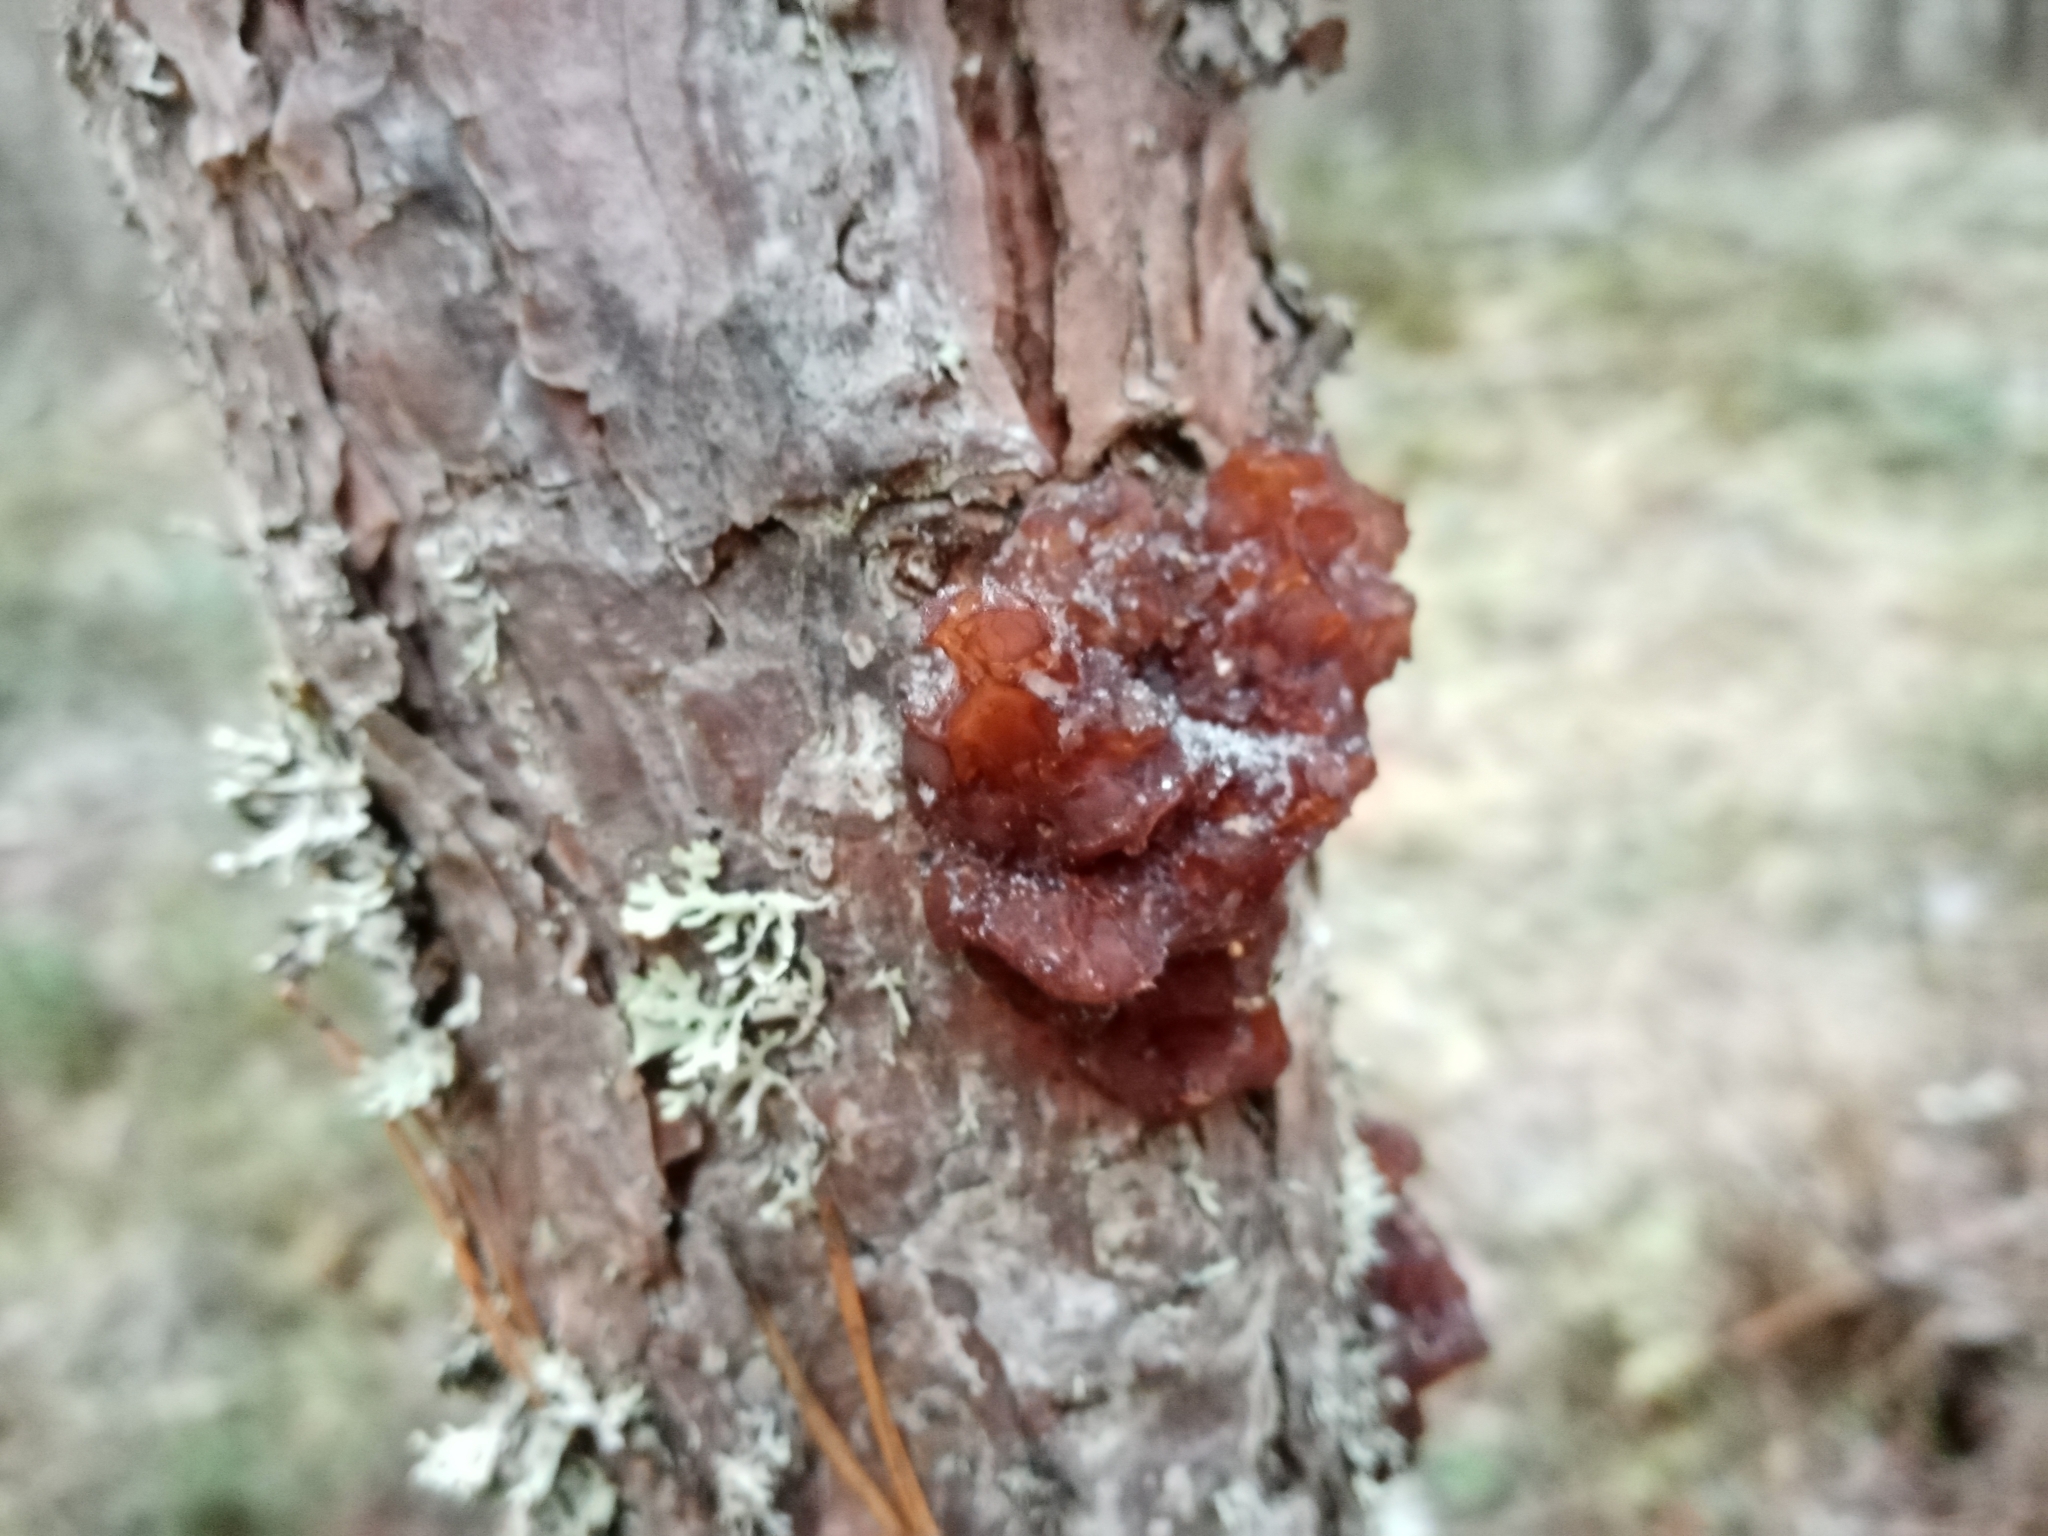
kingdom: Fungi
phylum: Basidiomycota
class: Agaricomycetes
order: Auriculariales
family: Auriculariaceae
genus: Exidia
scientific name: Exidia saccharina
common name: Pine jelly
